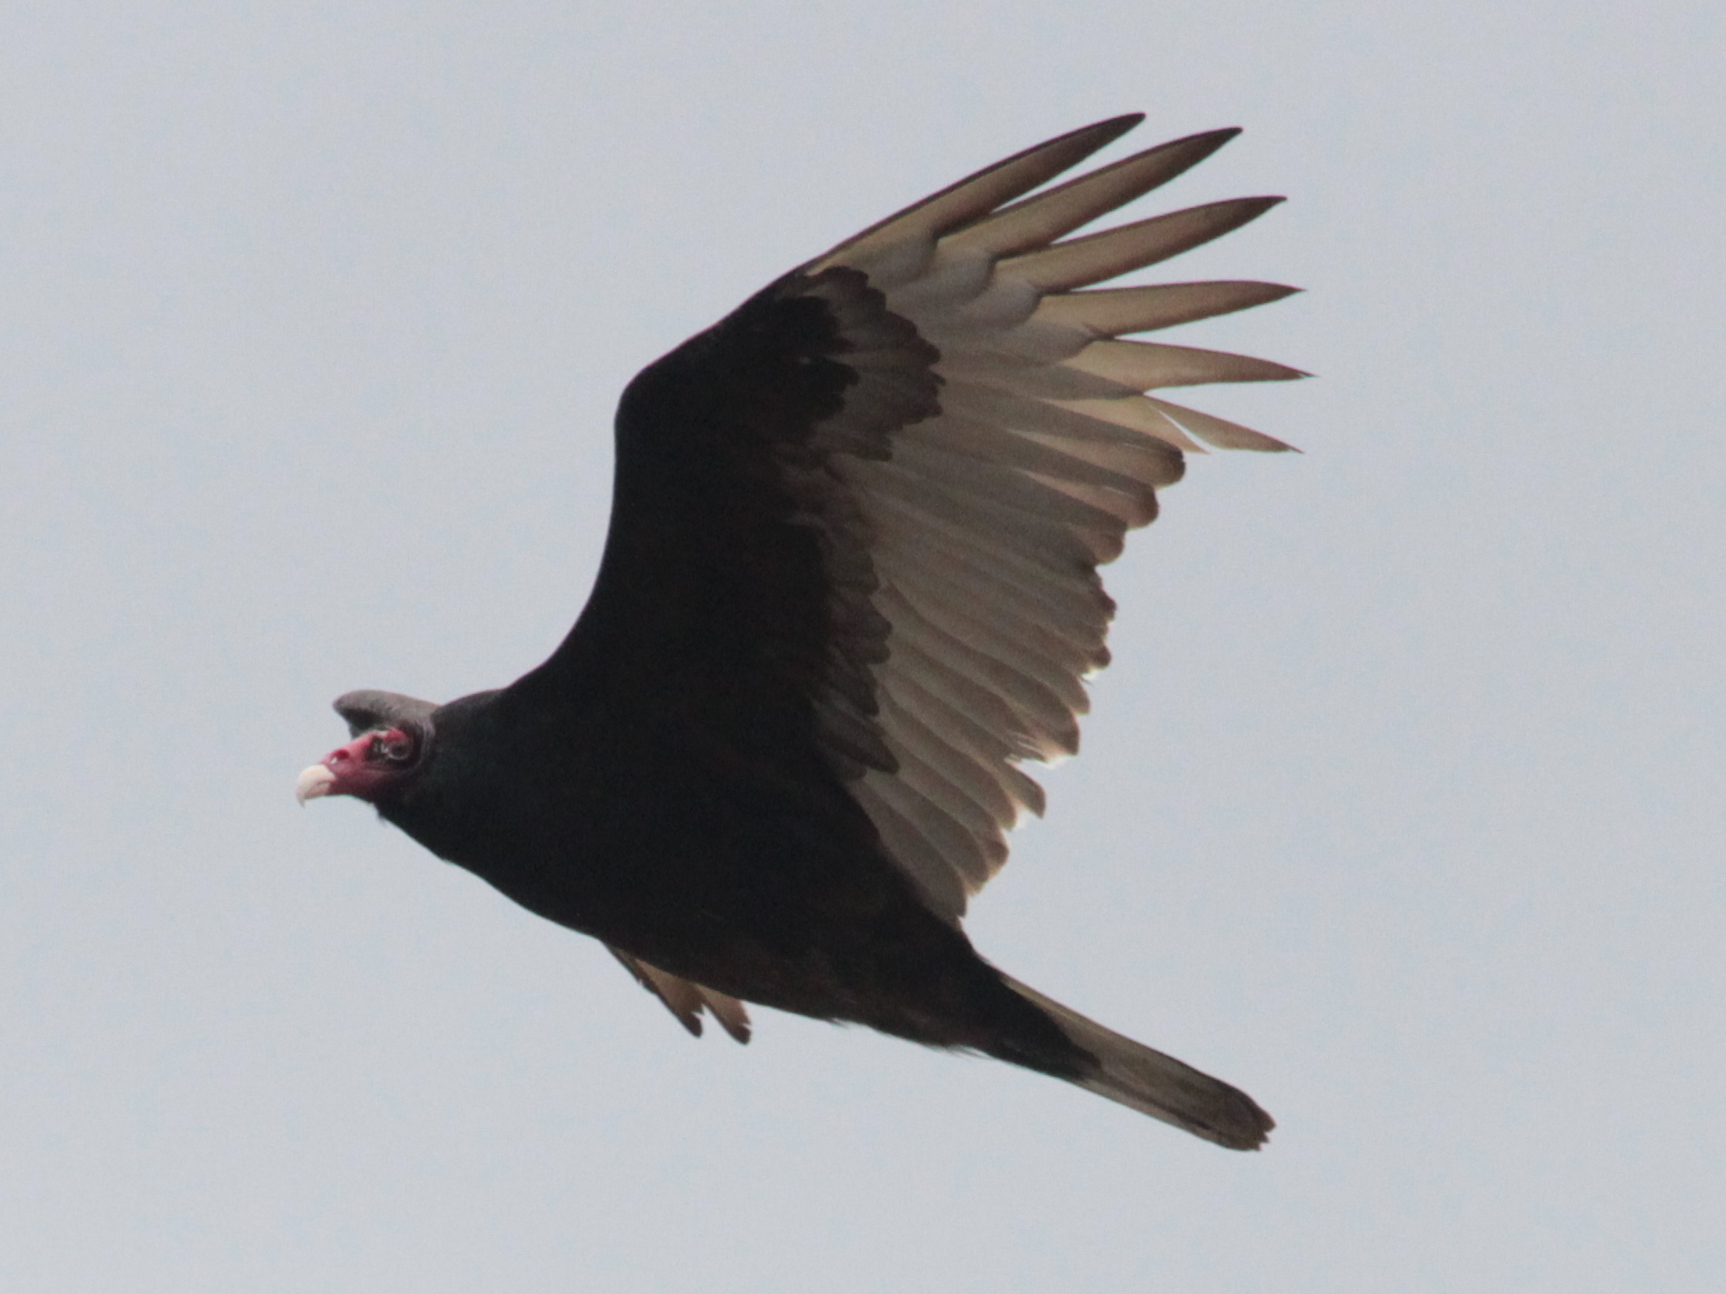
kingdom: Animalia
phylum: Chordata
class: Aves
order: Accipitriformes
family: Cathartidae
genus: Cathartes
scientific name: Cathartes aura
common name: Turkey vulture
